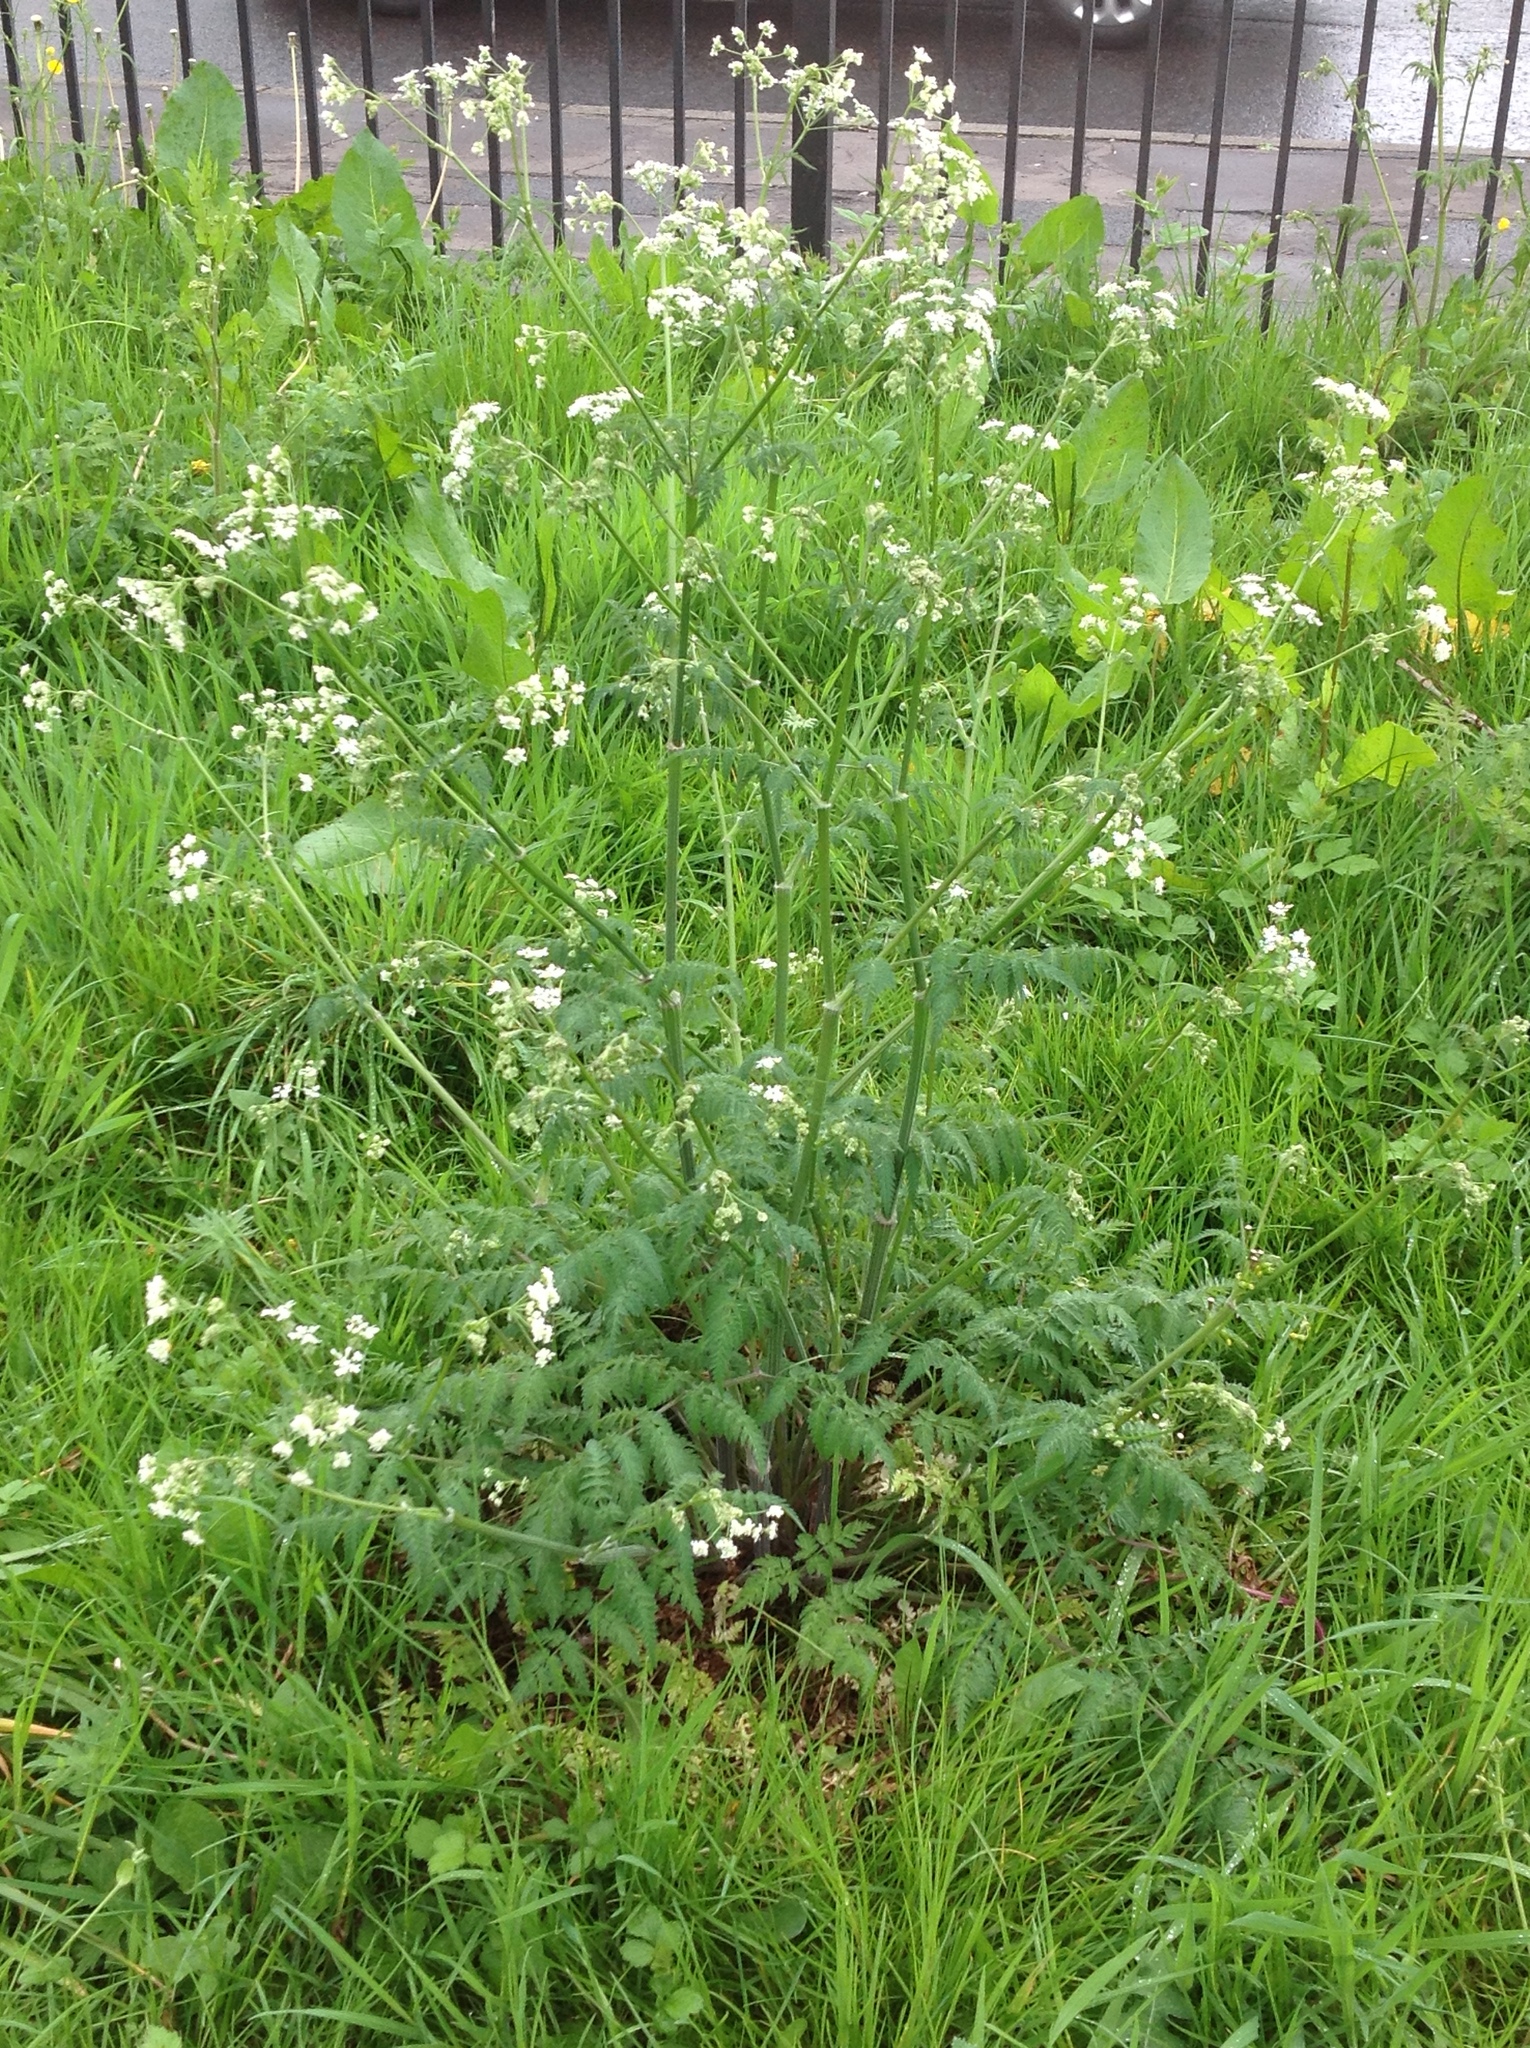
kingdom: Plantae
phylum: Tracheophyta
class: Magnoliopsida
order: Apiales
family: Apiaceae
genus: Anthriscus
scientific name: Anthriscus sylvestris
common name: Cow parsley
